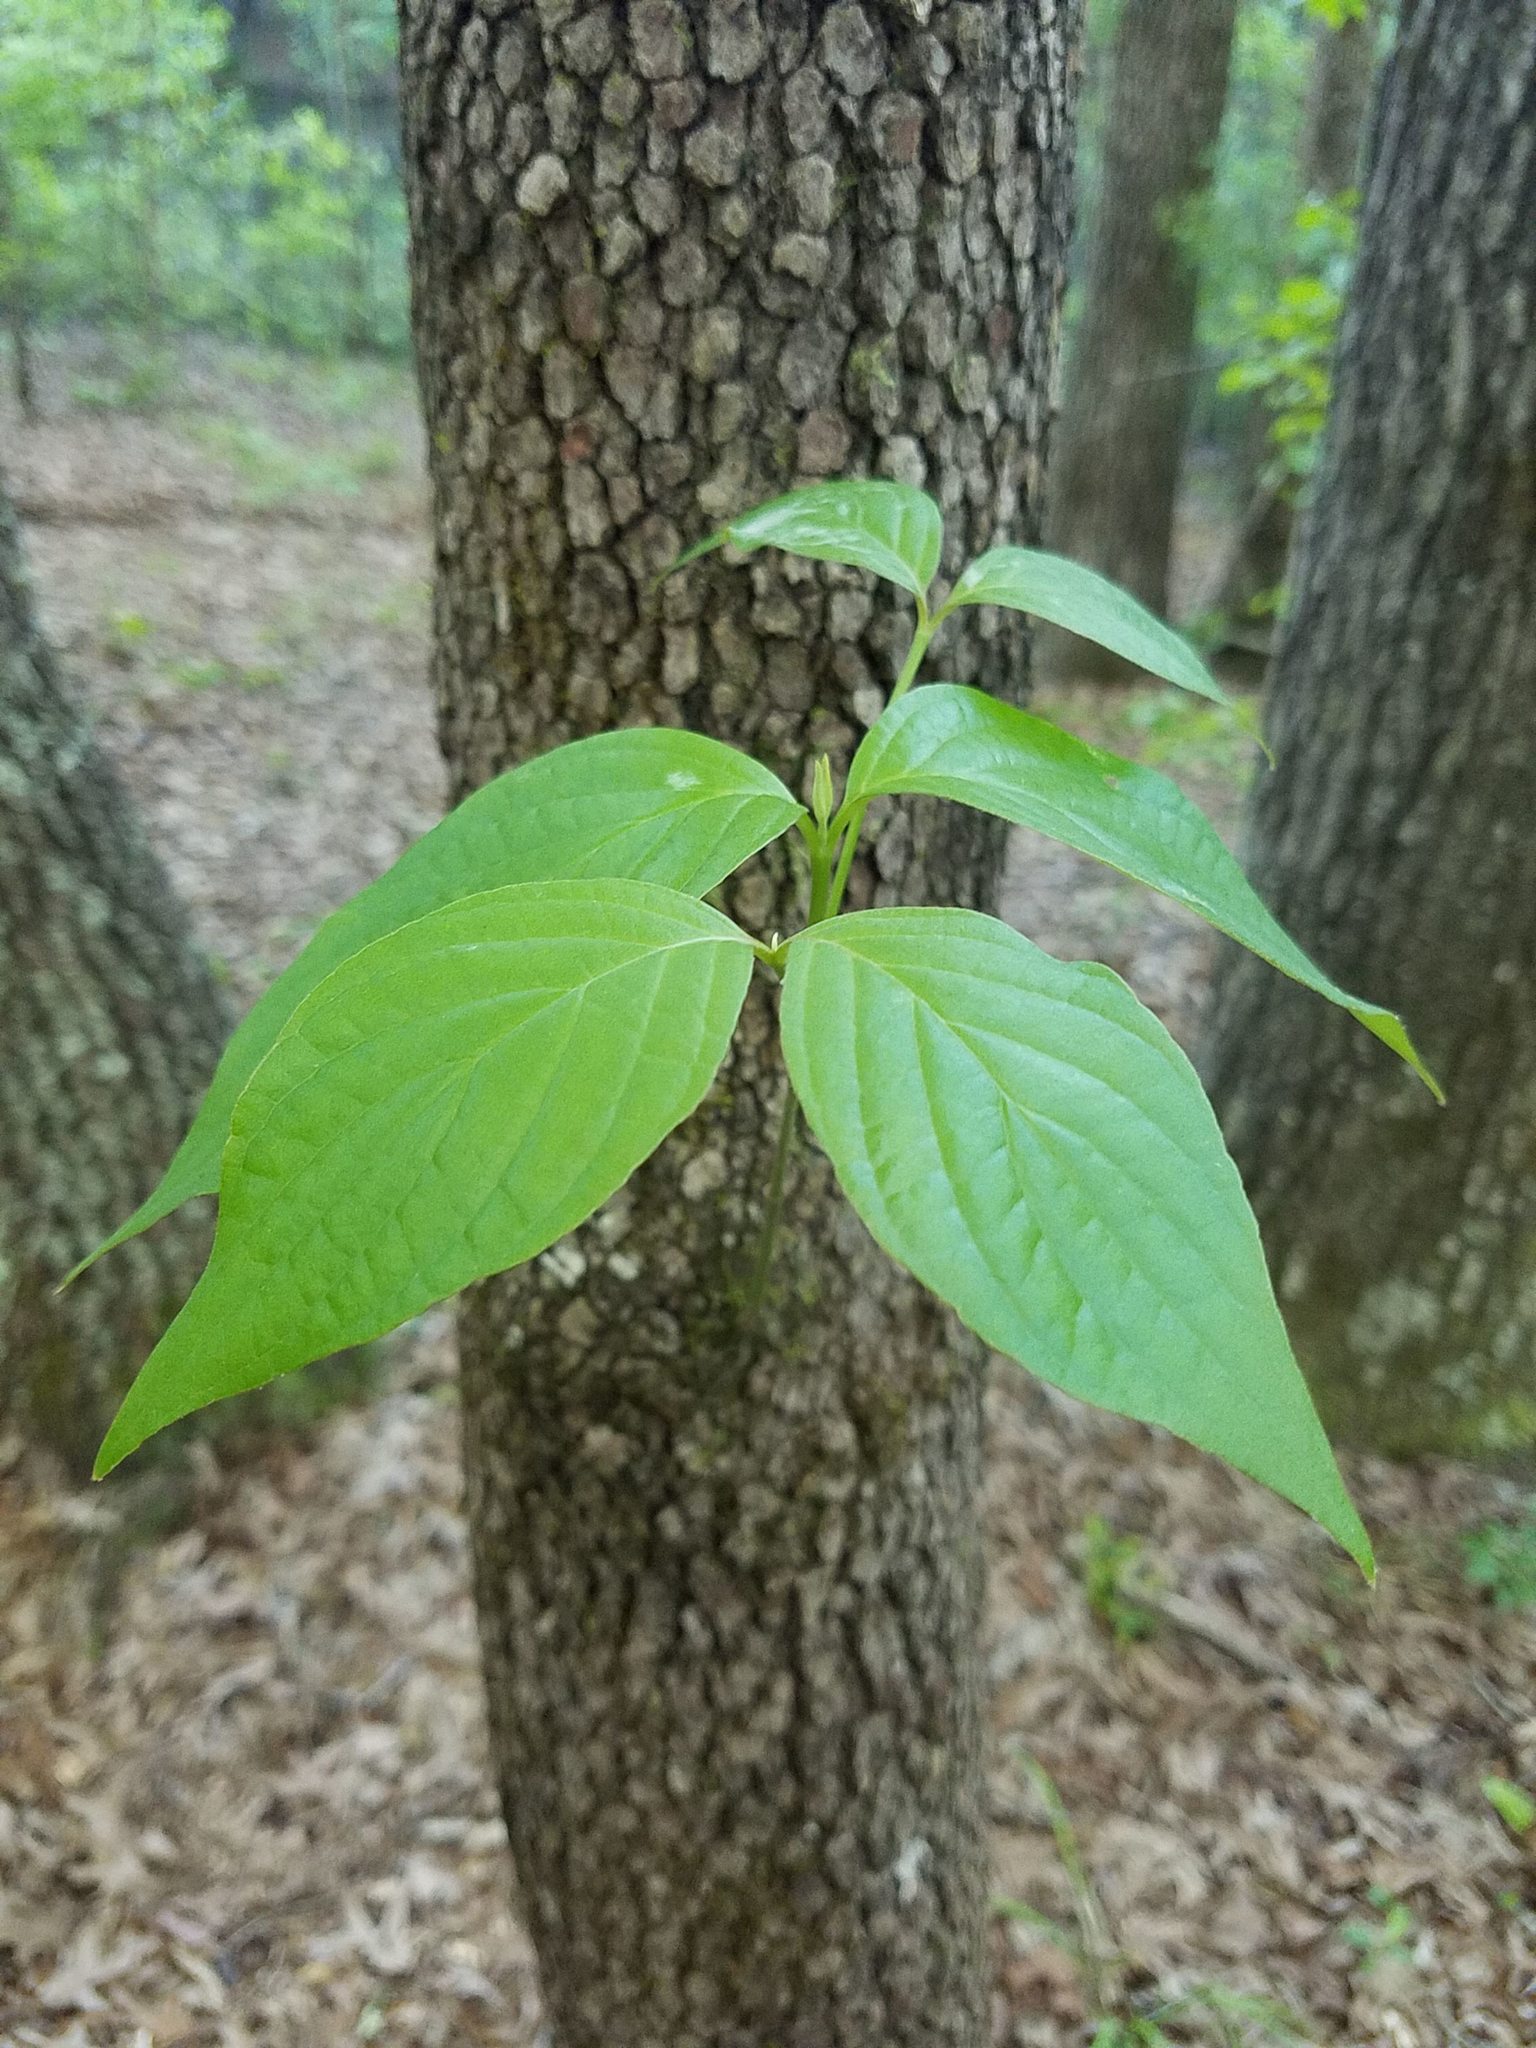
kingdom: Plantae
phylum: Tracheophyta
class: Magnoliopsida
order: Cornales
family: Cornaceae
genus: Cornus
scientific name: Cornus florida
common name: Flowering dogwood
